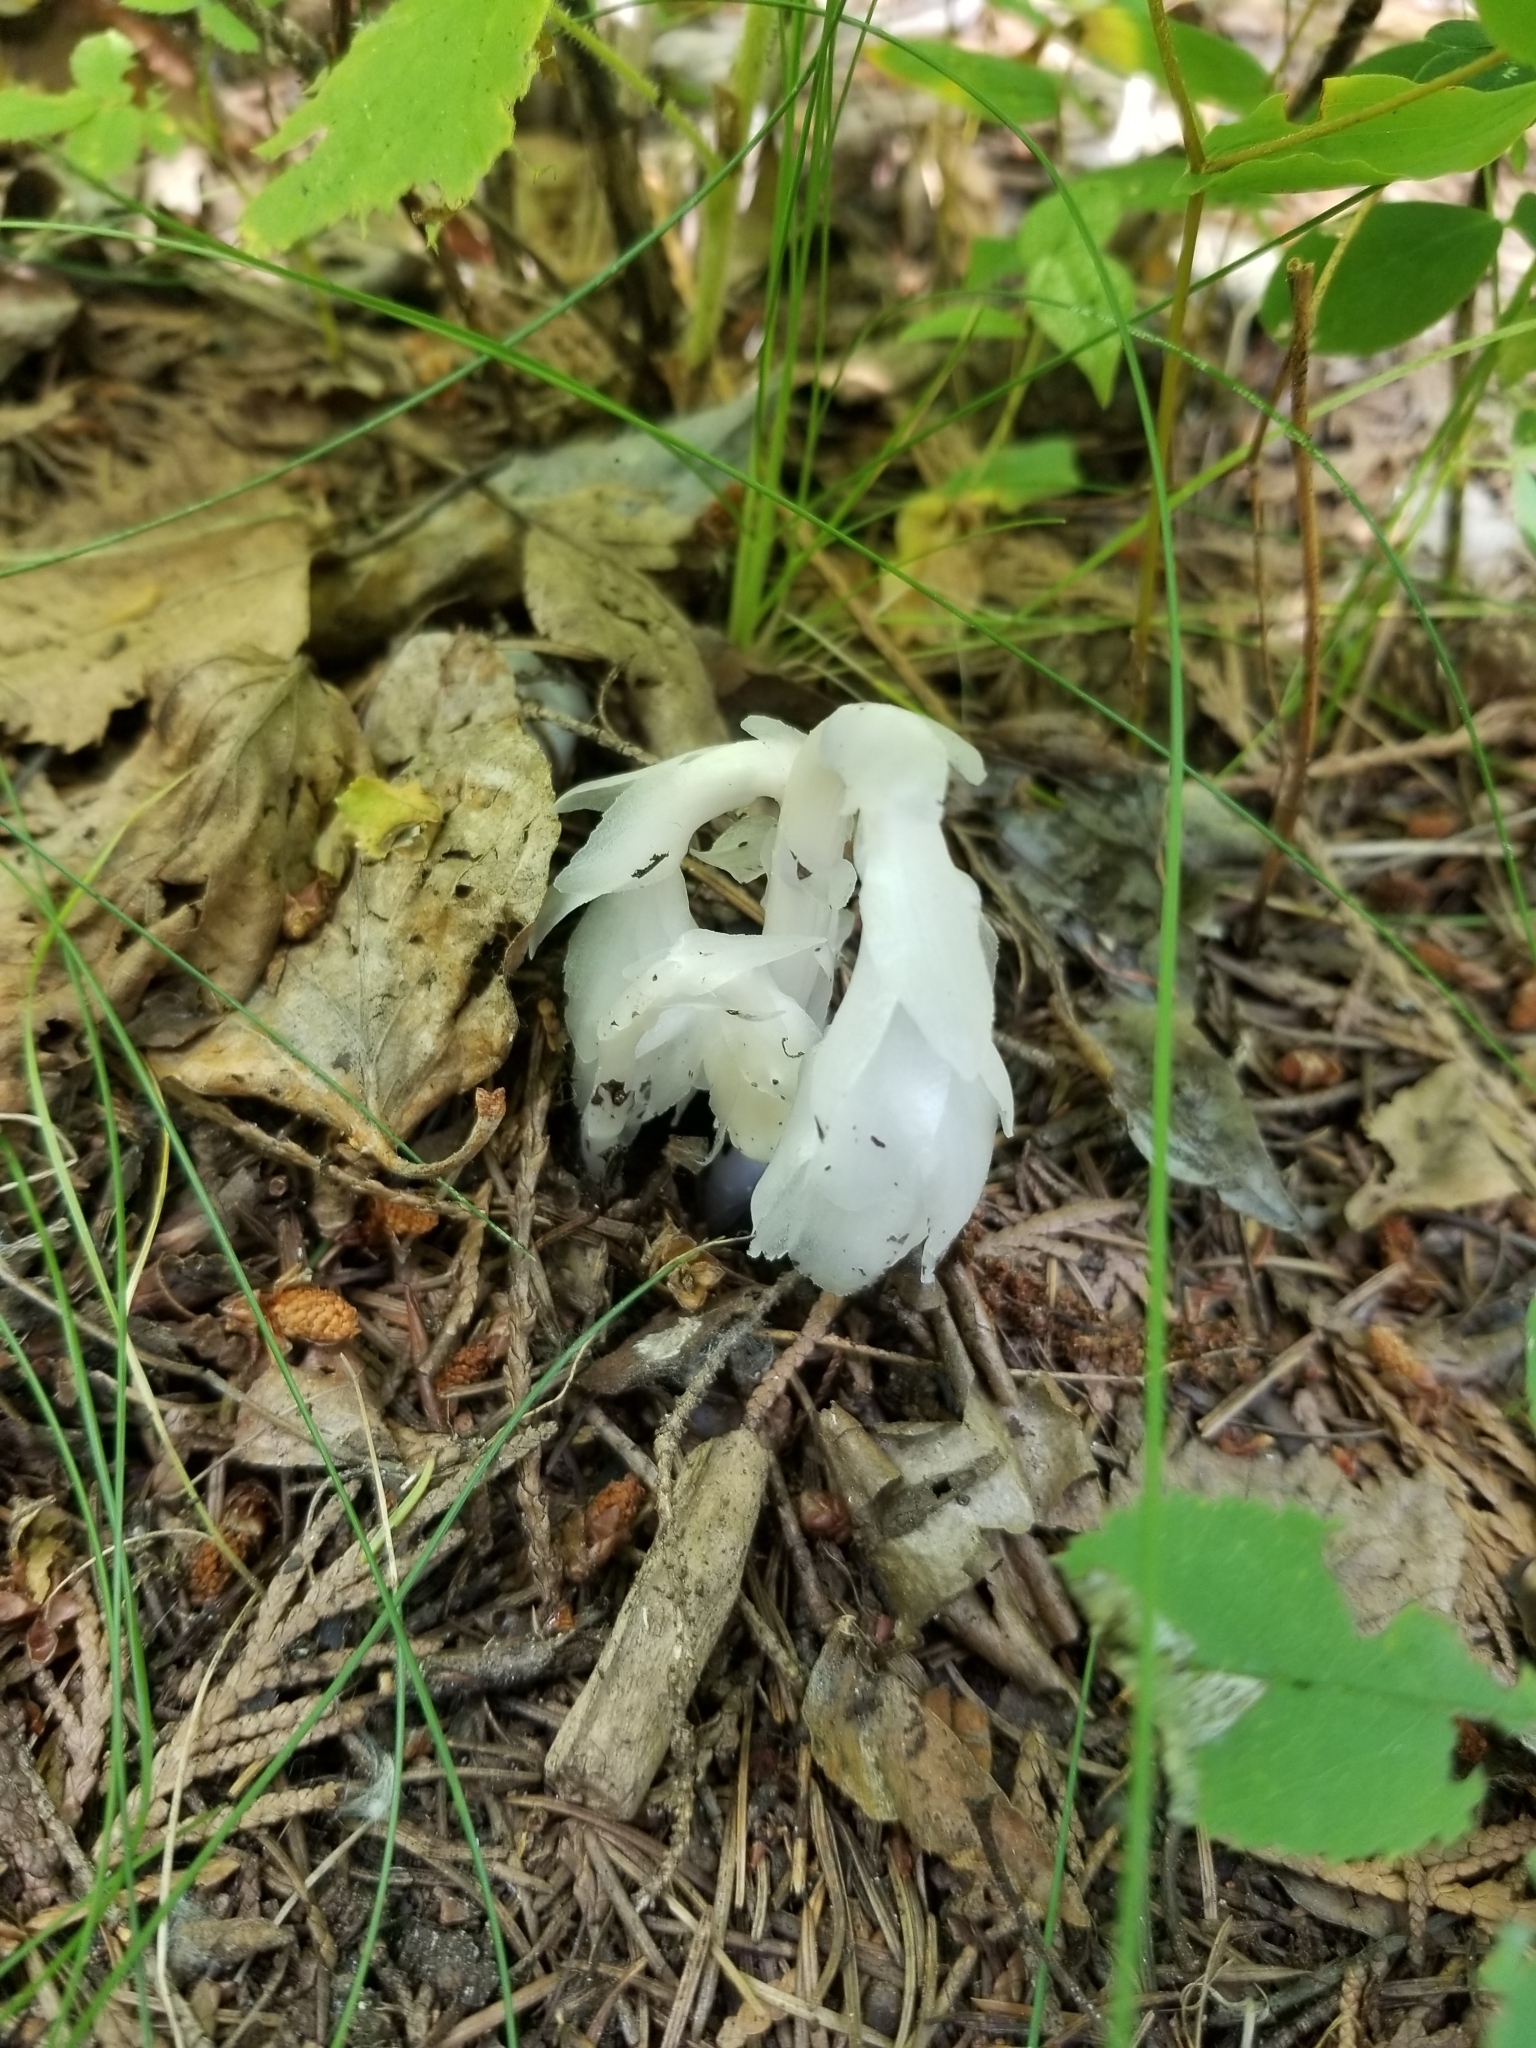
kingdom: Plantae
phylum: Tracheophyta
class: Magnoliopsida
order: Ericales
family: Ericaceae
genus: Monotropa
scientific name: Monotropa uniflora
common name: Convulsion root
